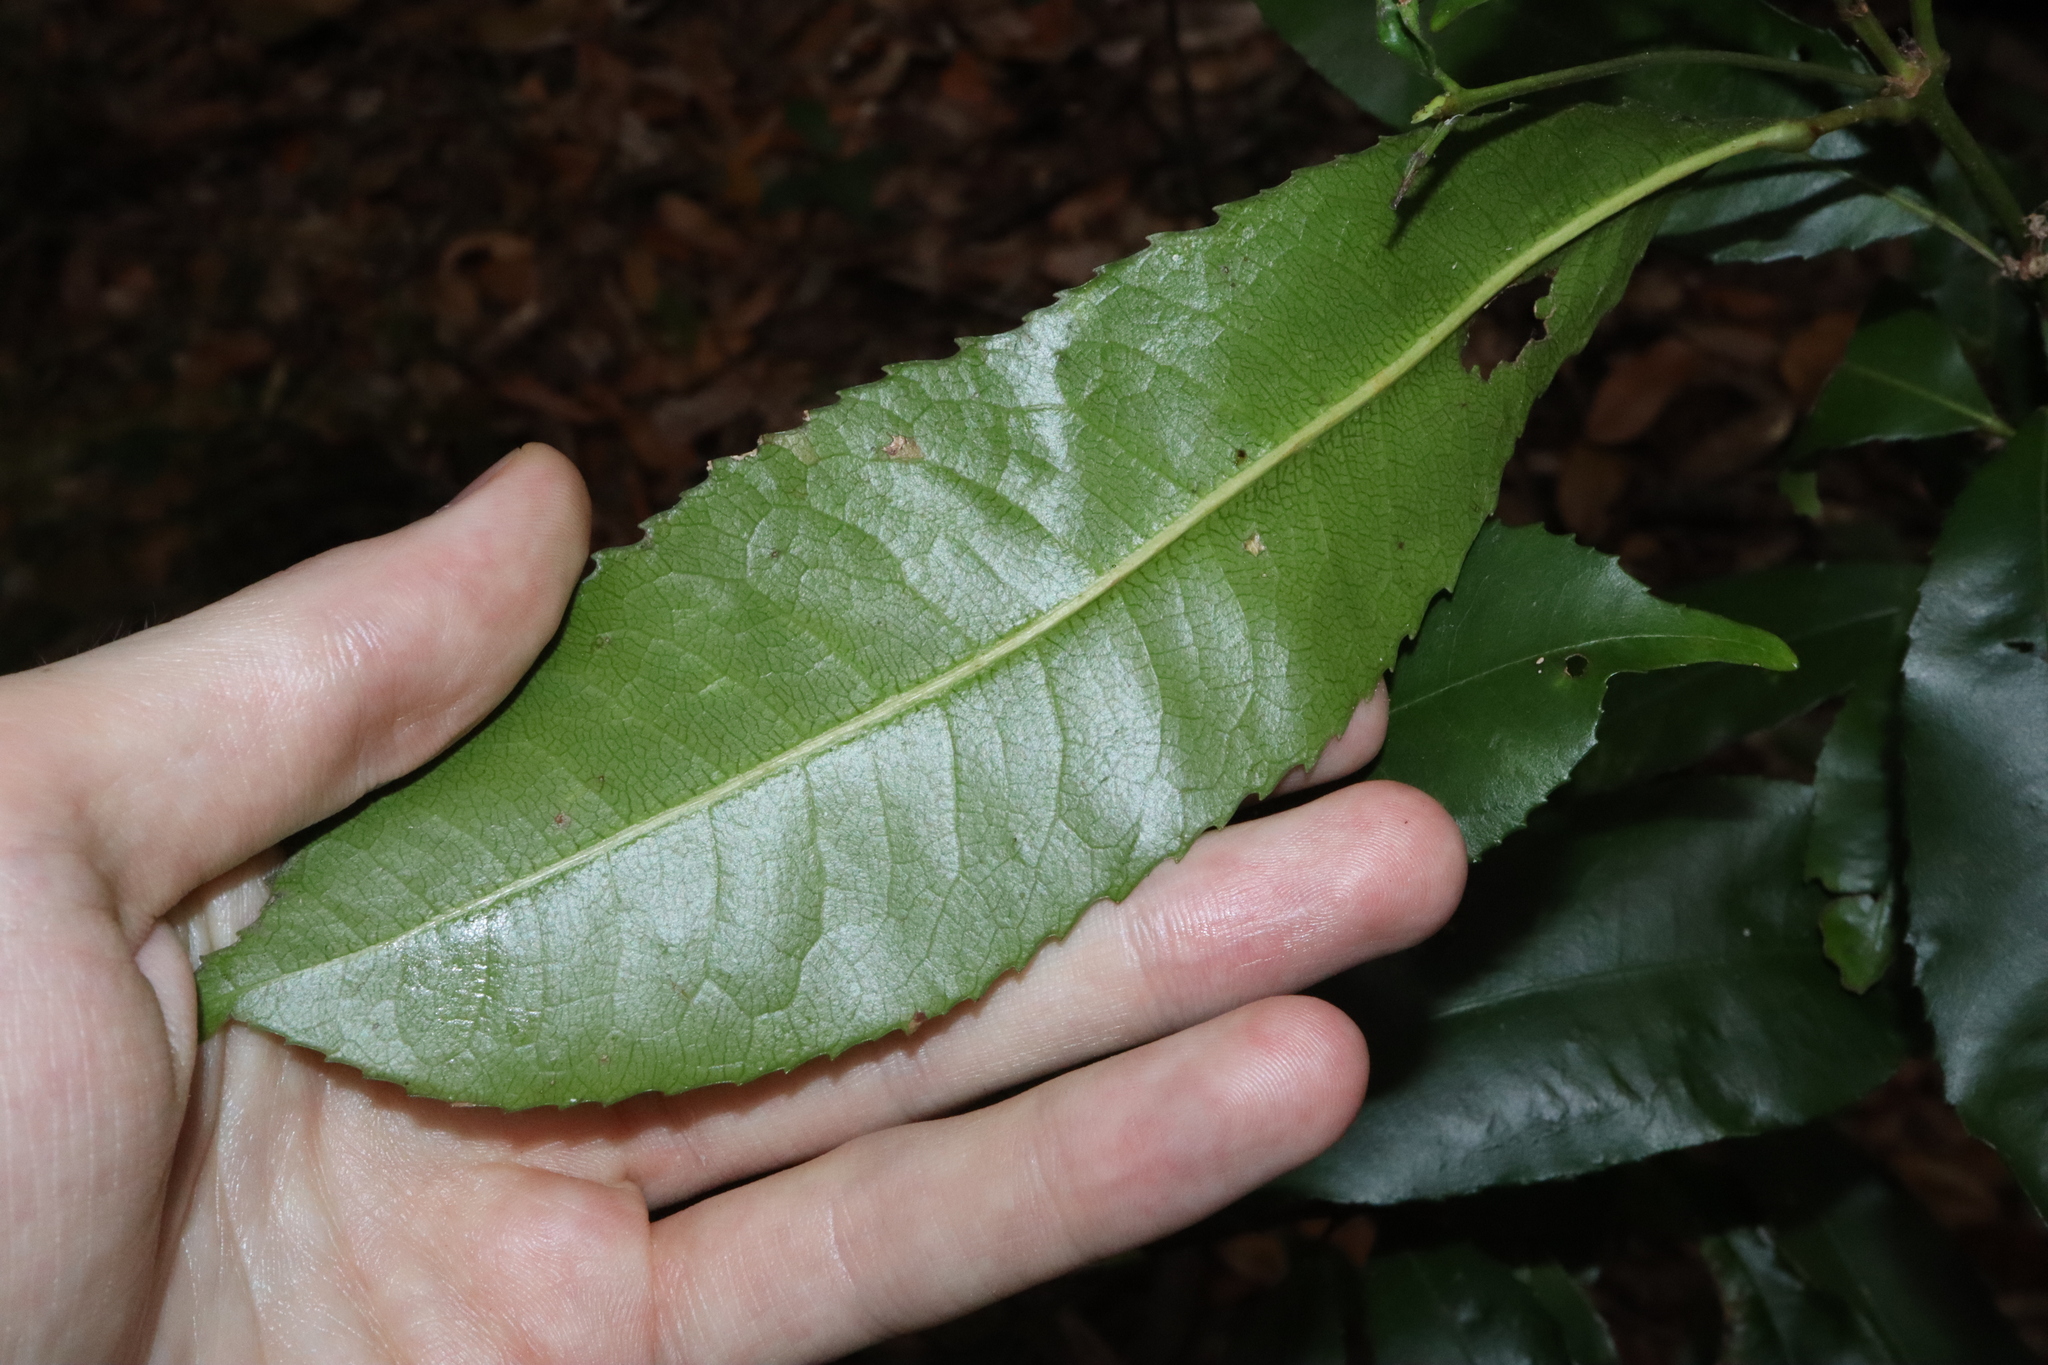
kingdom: Plantae
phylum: Tracheophyta
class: Magnoliopsida
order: Oxalidales
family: Cunoniaceae
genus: Ceratopetalum
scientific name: Ceratopetalum apetalum
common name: Scented satinwood
